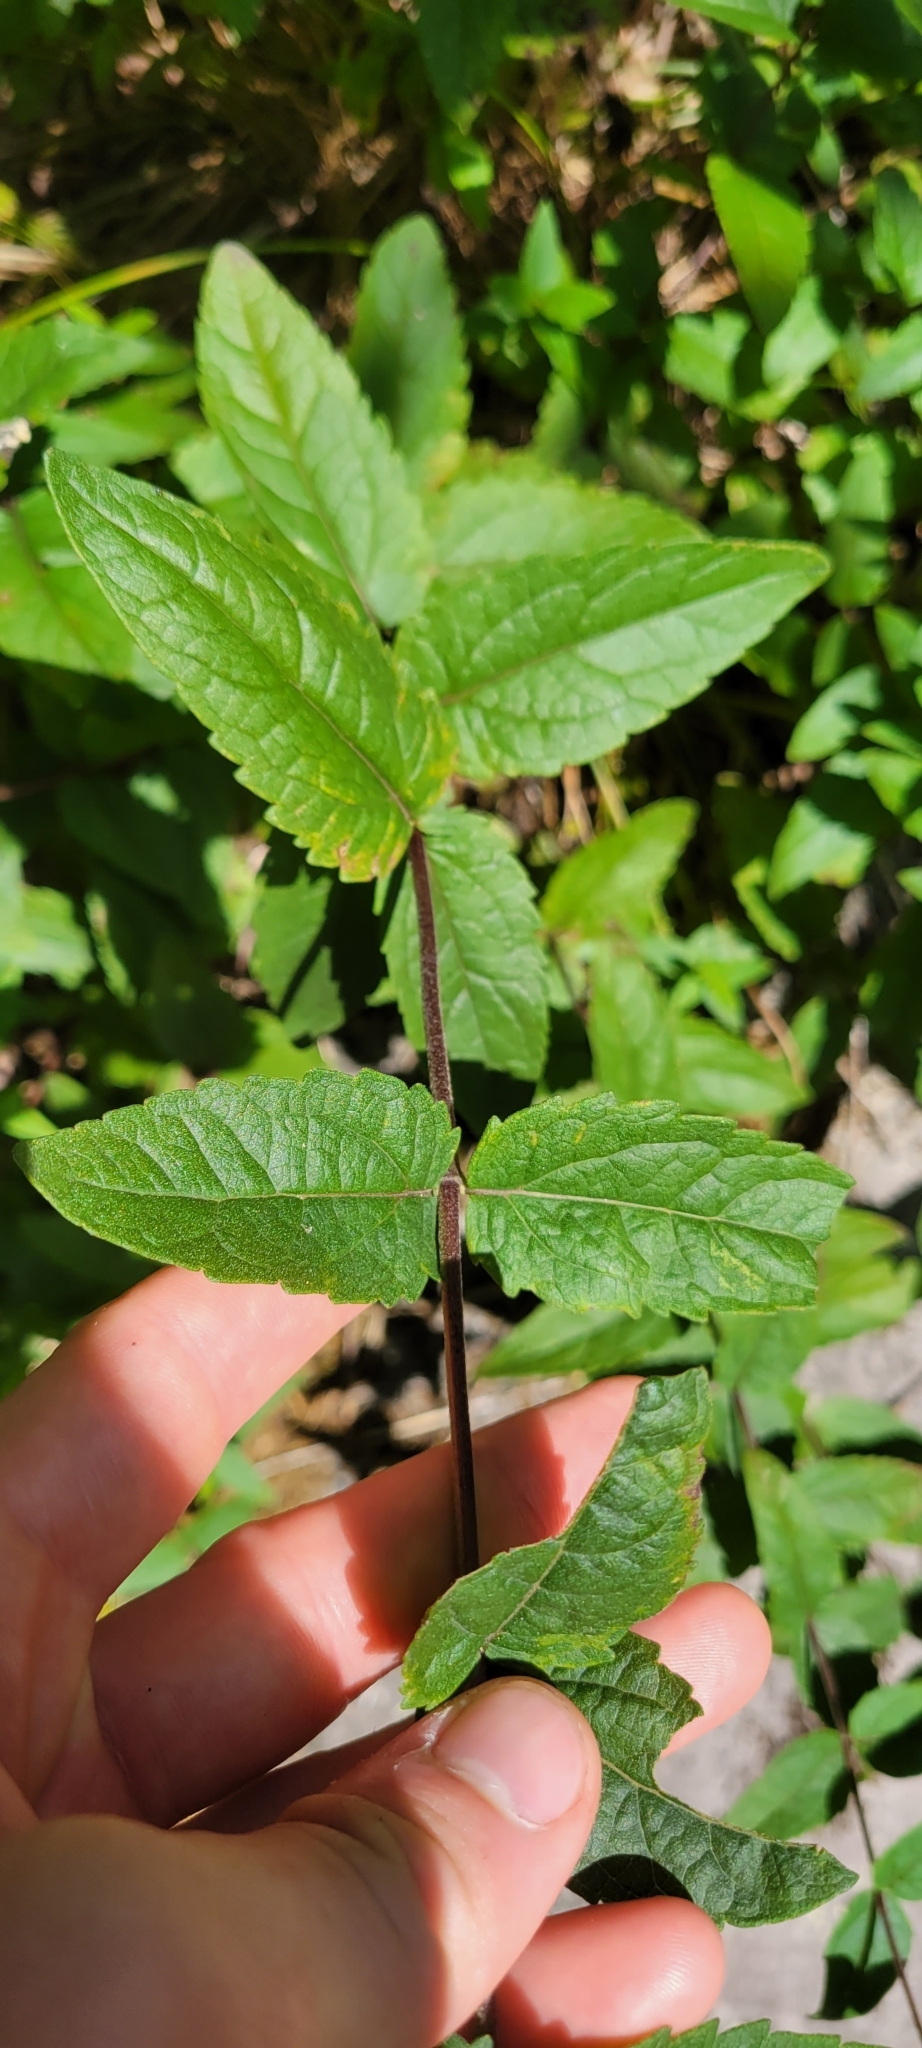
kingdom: Plantae
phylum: Tracheophyta
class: Magnoliopsida
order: Asterales
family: Asteraceae
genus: Eupatorium
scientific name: Eupatorium pilosum
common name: Rough boneset
